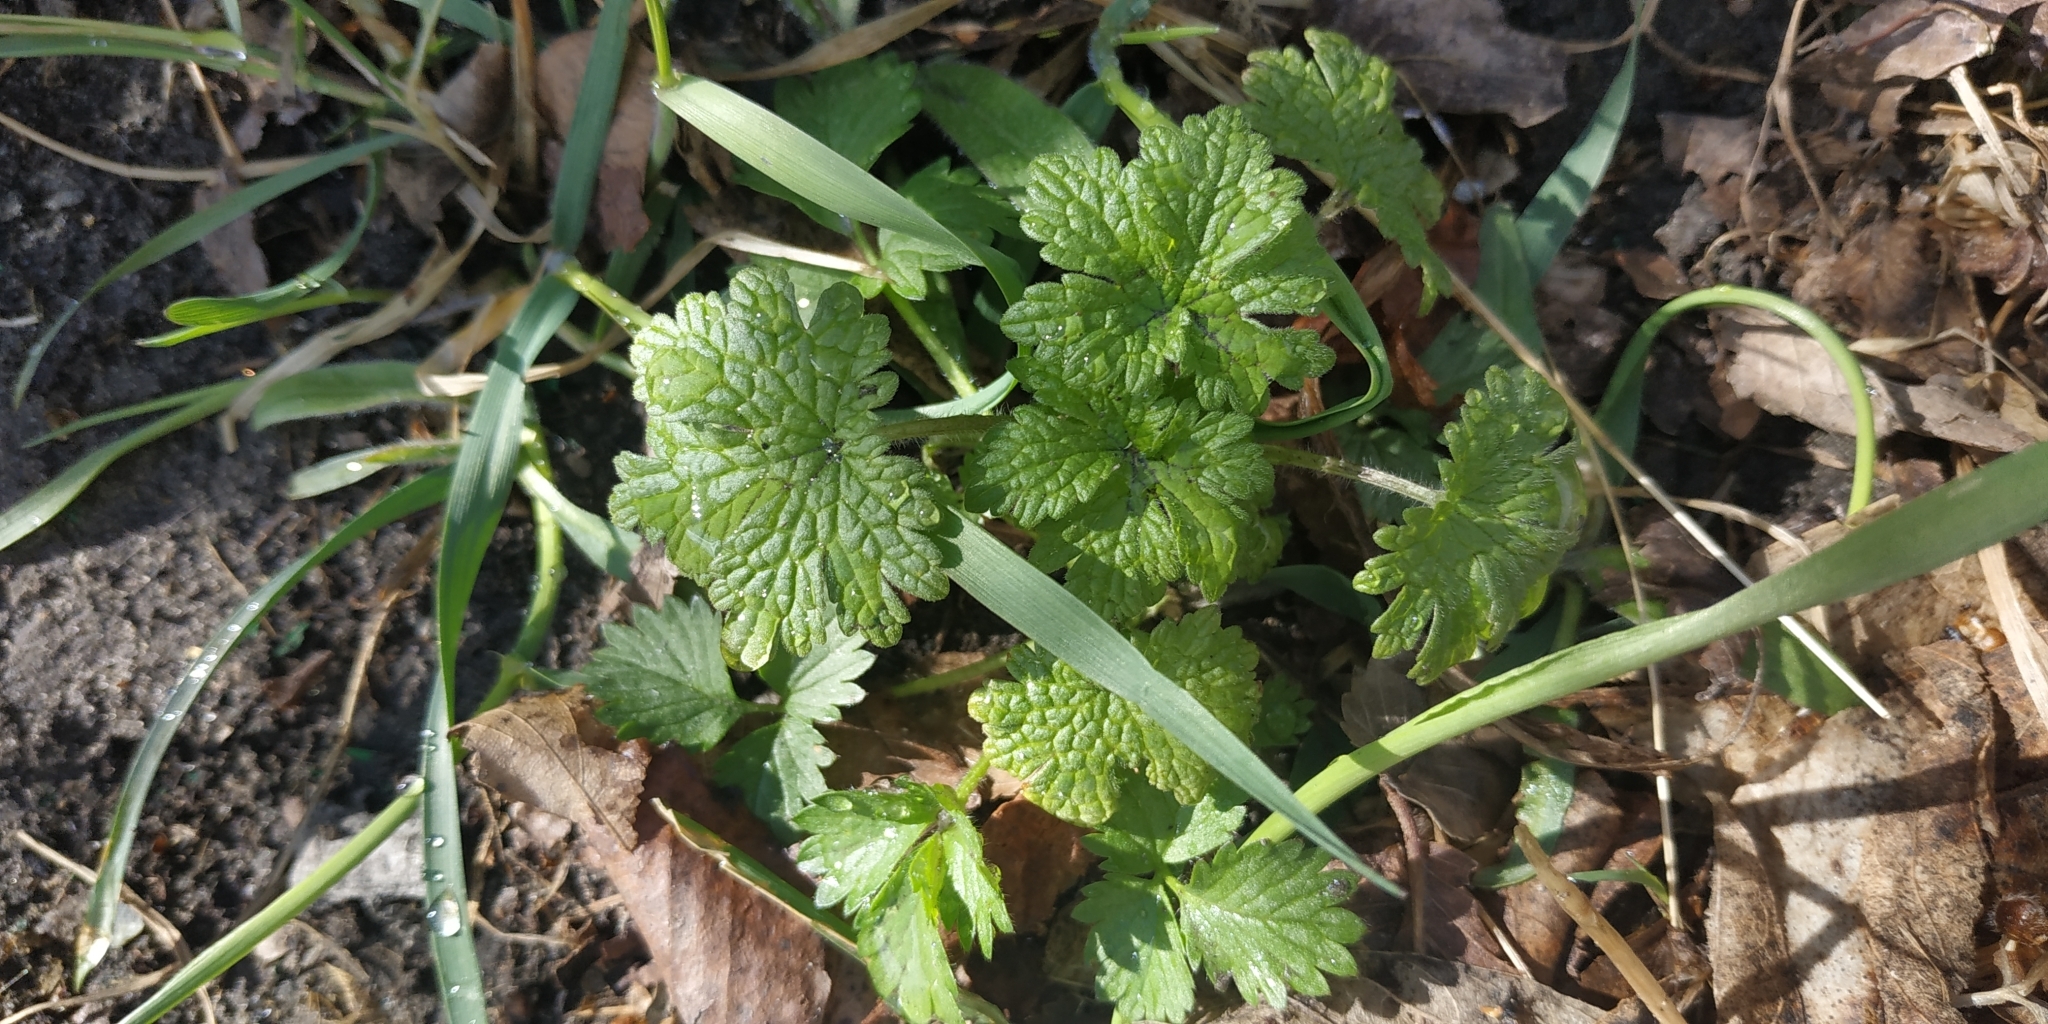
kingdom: Plantae
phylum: Tracheophyta
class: Magnoliopsida
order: Lamiales
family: Lamiaceae
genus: Leonurus
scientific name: Leonurus quinquelobatus
